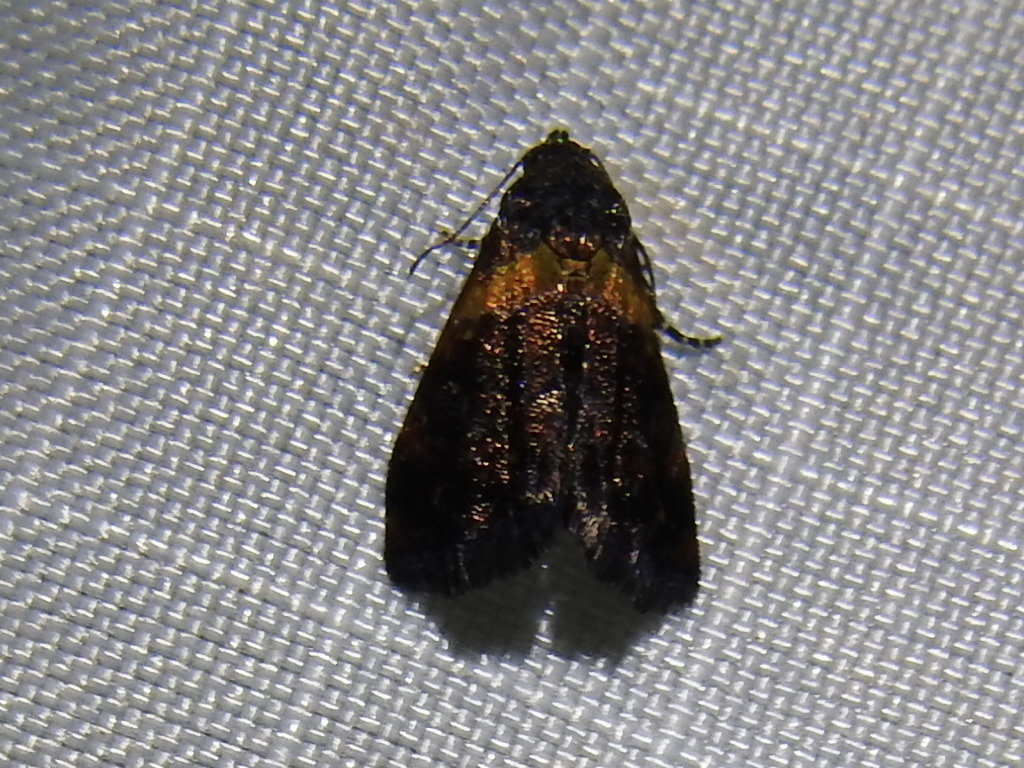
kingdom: Animalia
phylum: Arthropoda
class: Insecta
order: Lepidoptera
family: Noctuidae
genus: Tripudia
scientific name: Tripudia flavofasciata
